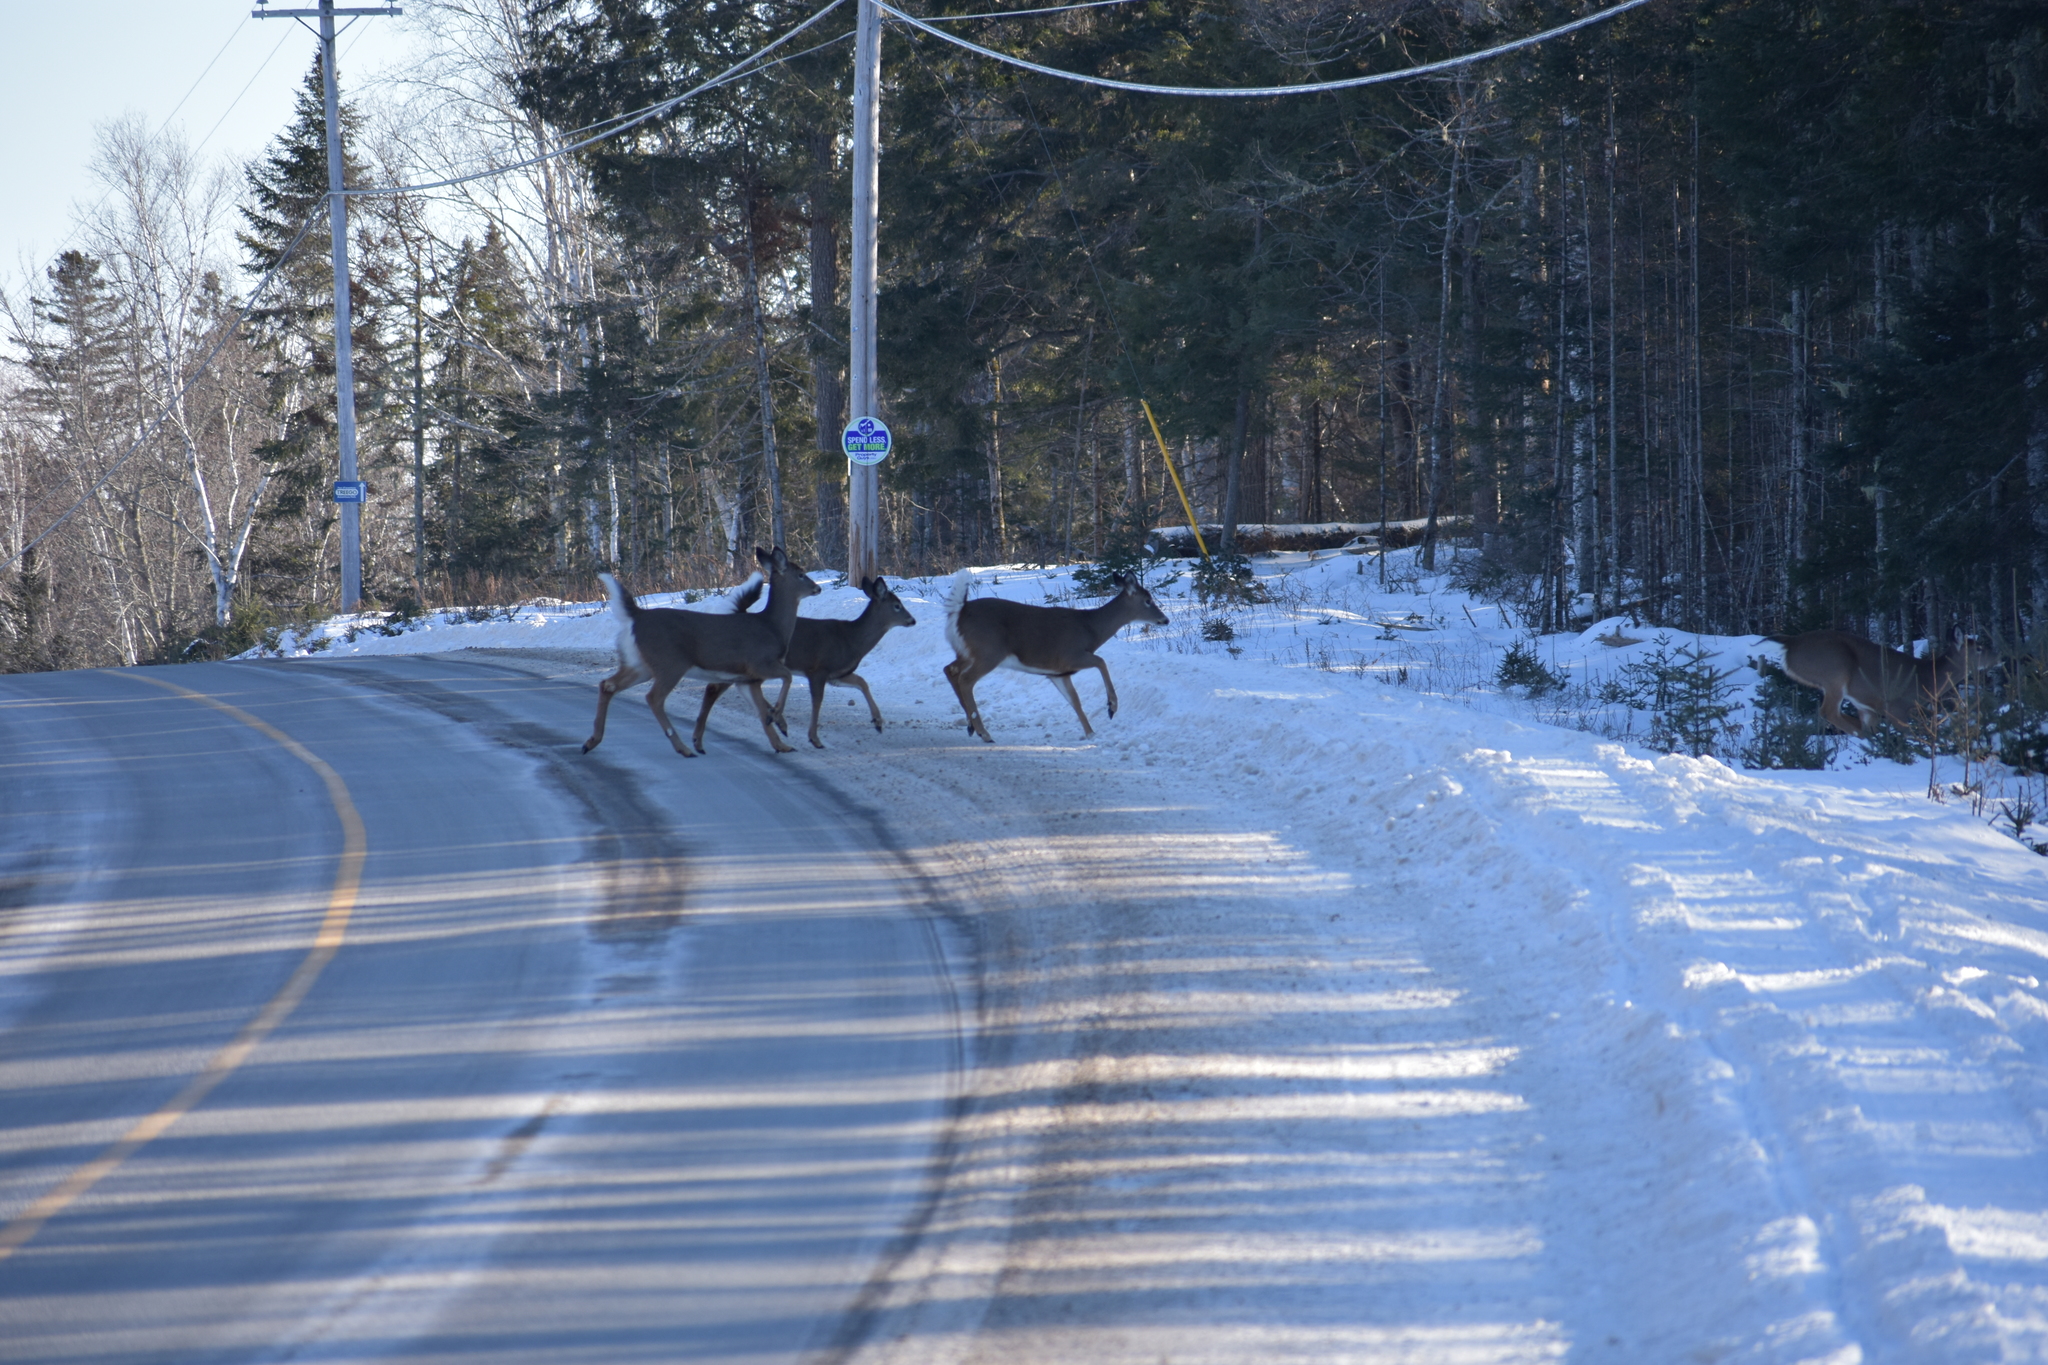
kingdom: Animalia
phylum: Chordata
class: Mammalia
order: Artiodactyla
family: Cervidae
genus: Odocoileus
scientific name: Odocoileus virginianus
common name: White-tailed deer
